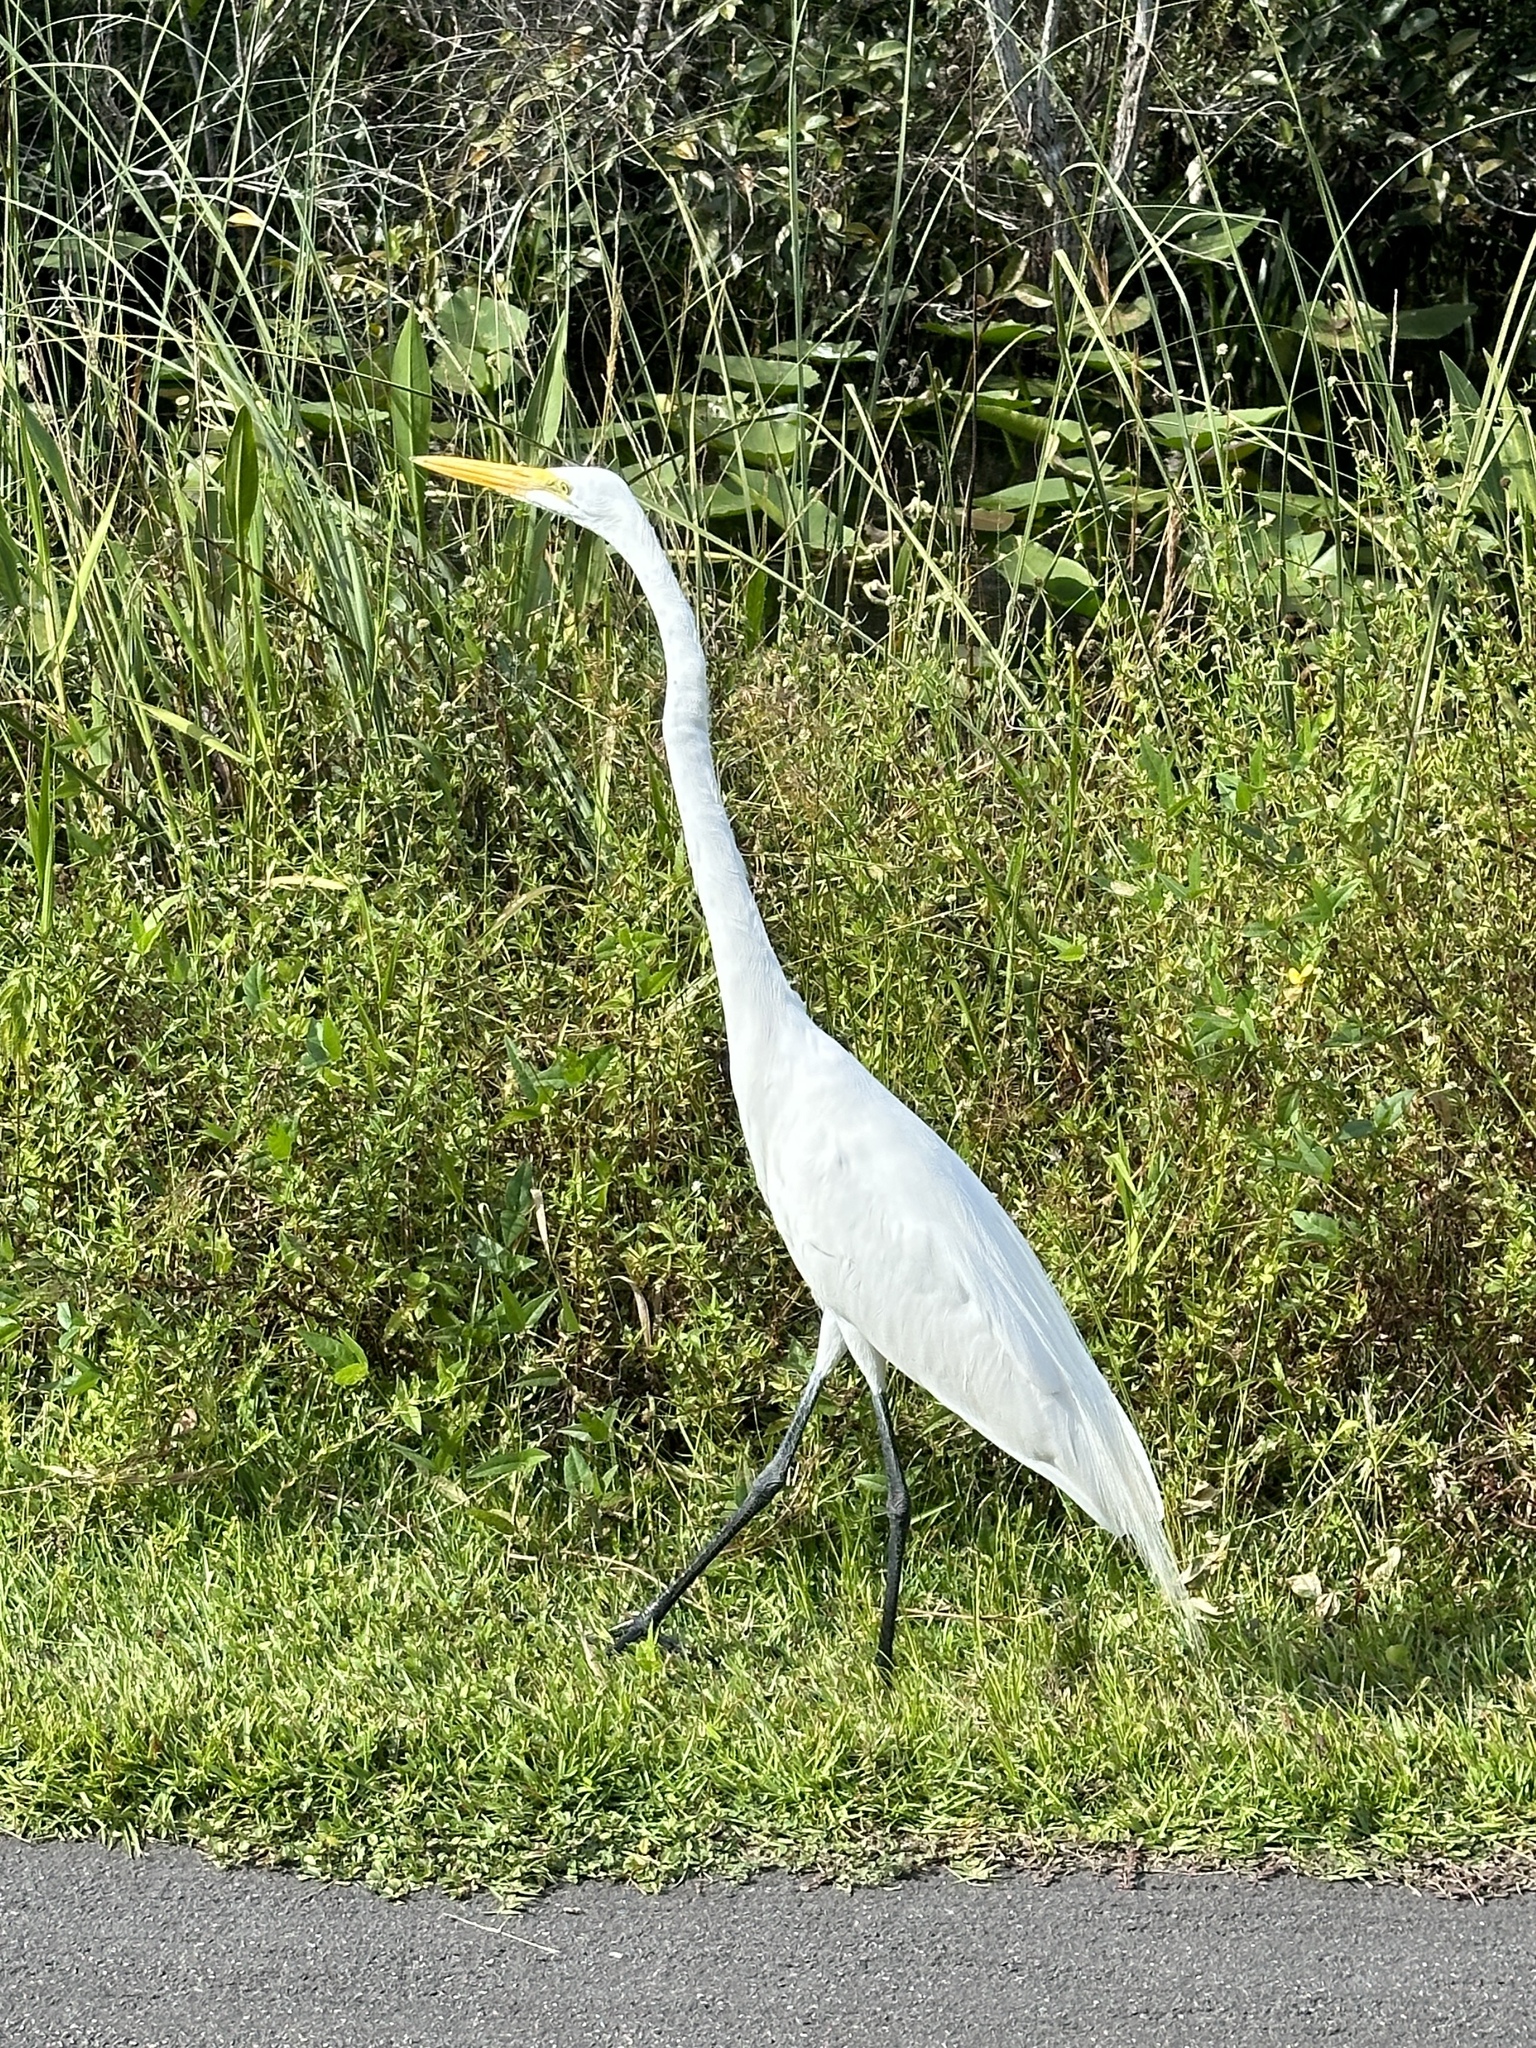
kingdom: Animalia
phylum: Chordata
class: Aves
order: Pelecaniformes
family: Ardeidae
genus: Ardea
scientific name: Ardea alba
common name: Great egret
